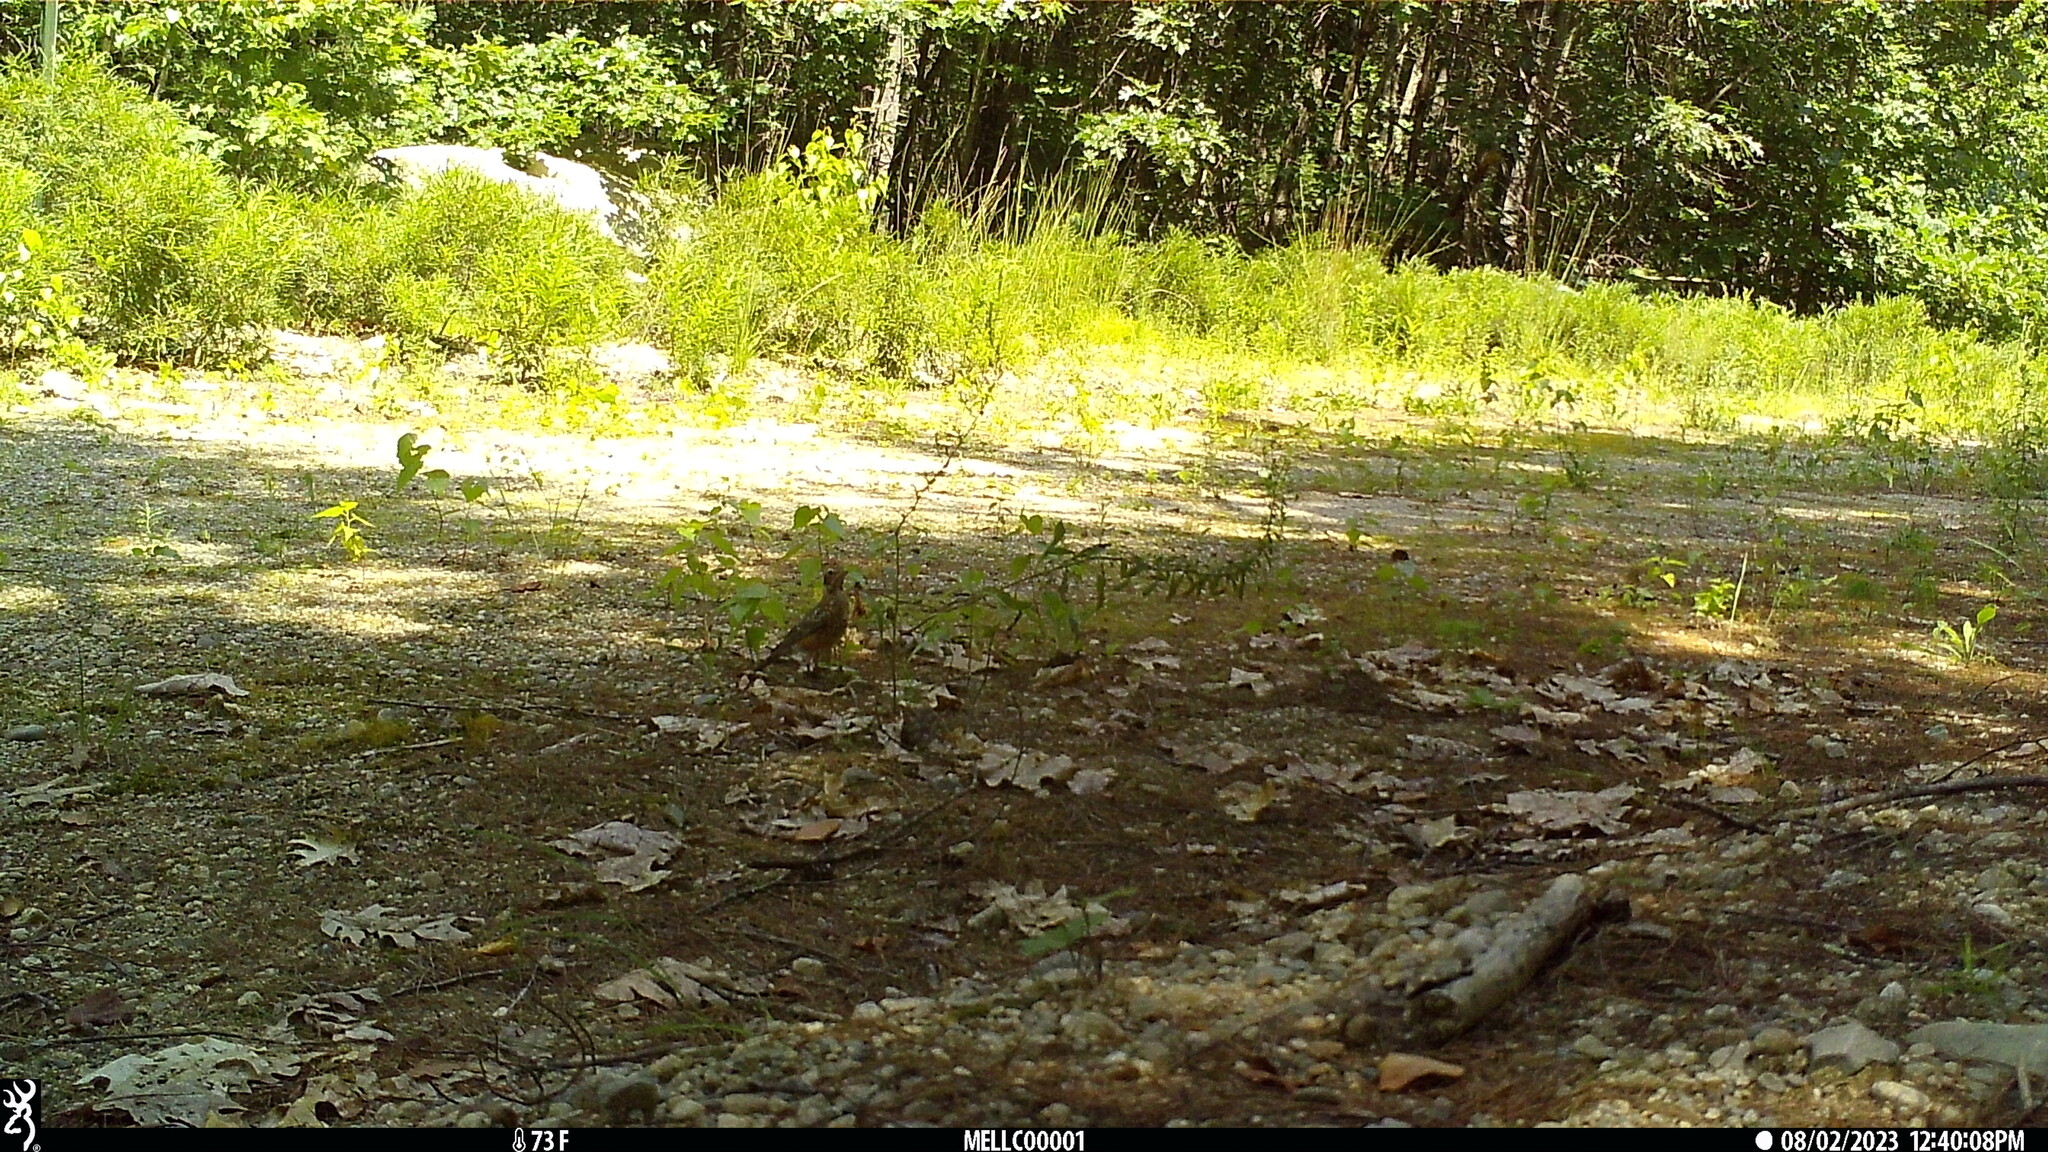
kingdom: Animalia
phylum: Chordata
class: Aves
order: Passeriformes
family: Turdidae
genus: Turdus
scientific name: Turdus migratorius
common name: American robin
